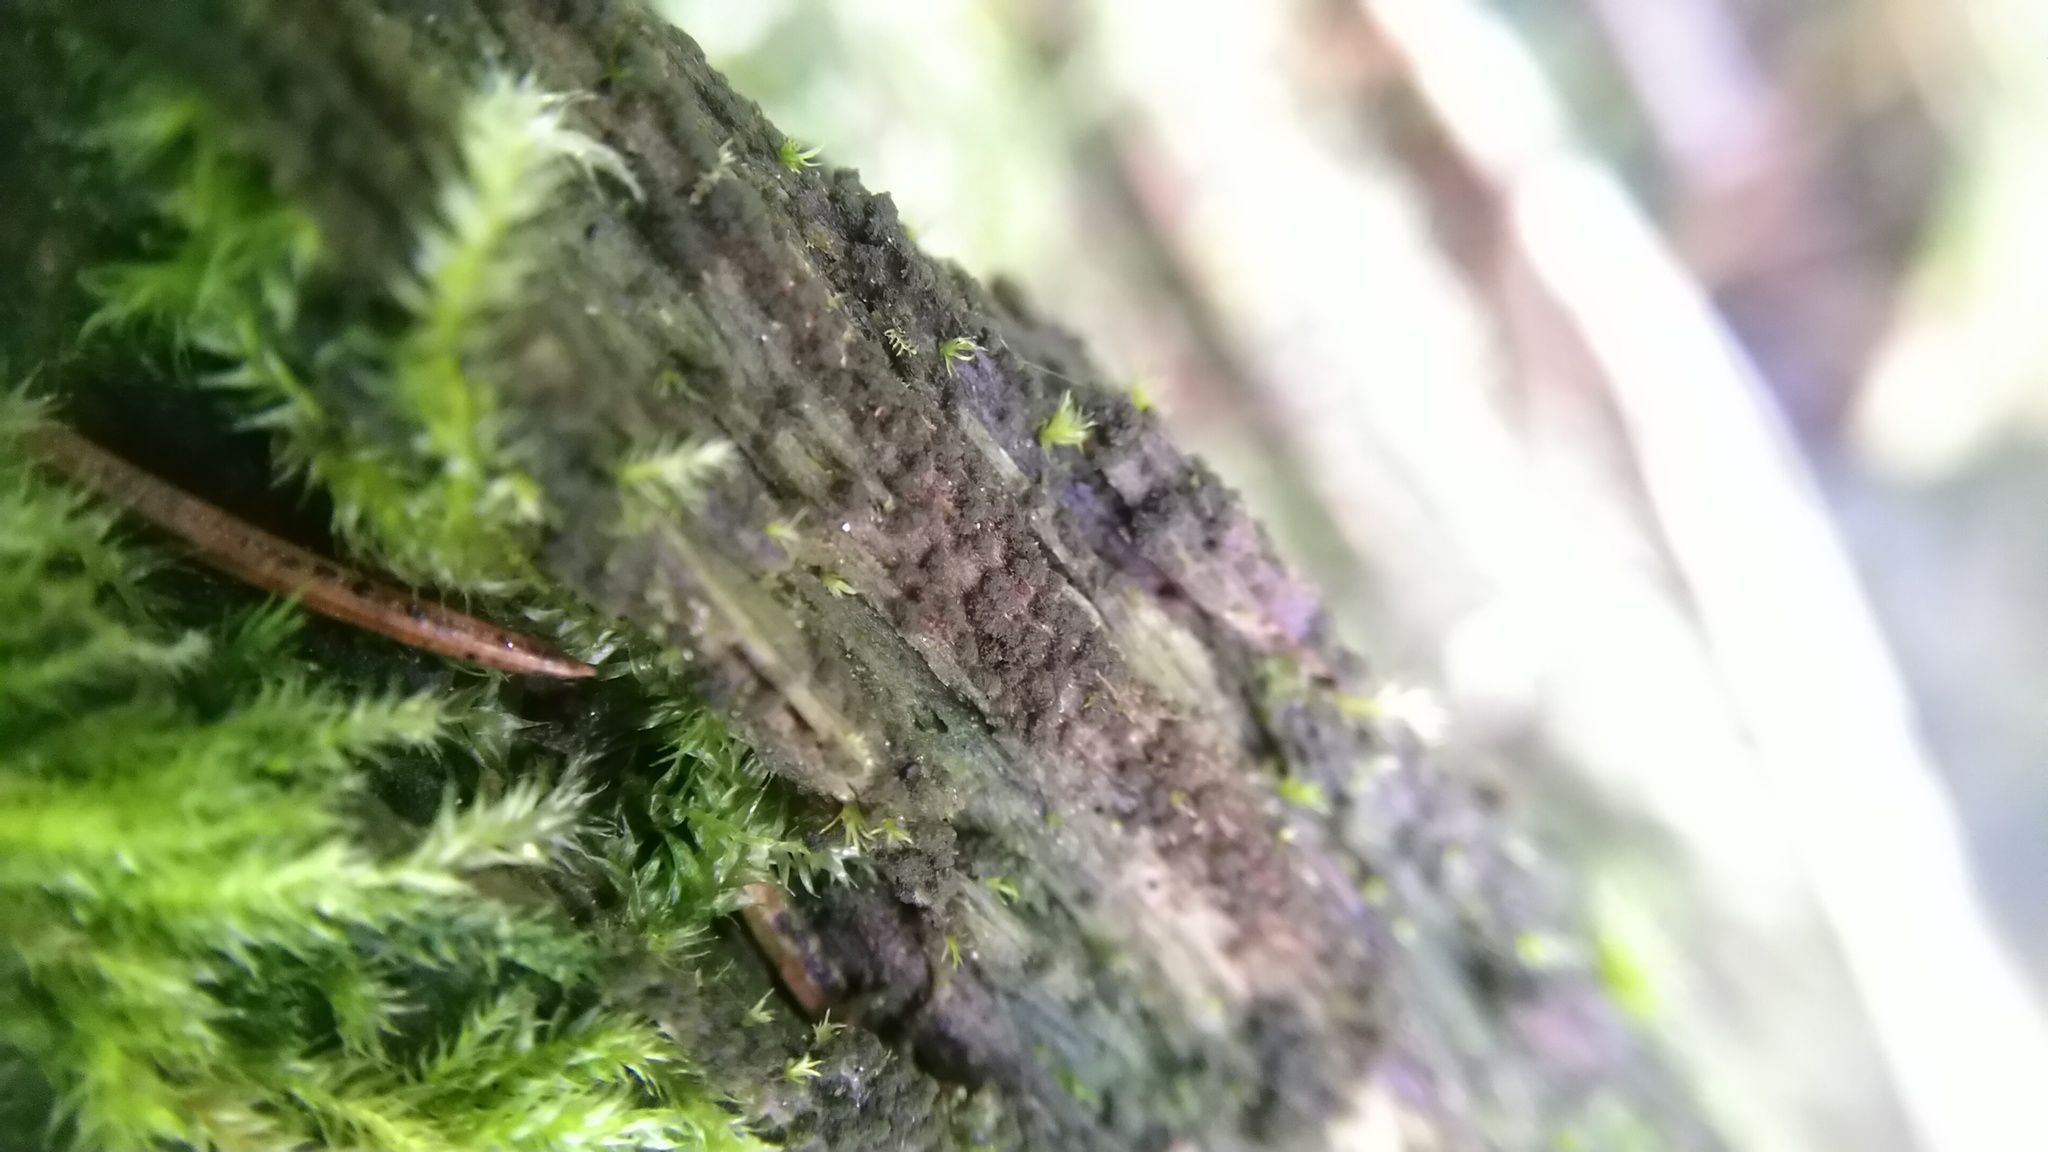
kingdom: Plantae
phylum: Bryophyta
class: Bryopsida
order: Buxbaumiales
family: Buxbaumiaceae
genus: Buxbaumia
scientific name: Buxbaumia viridis
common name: Green shield-moss
